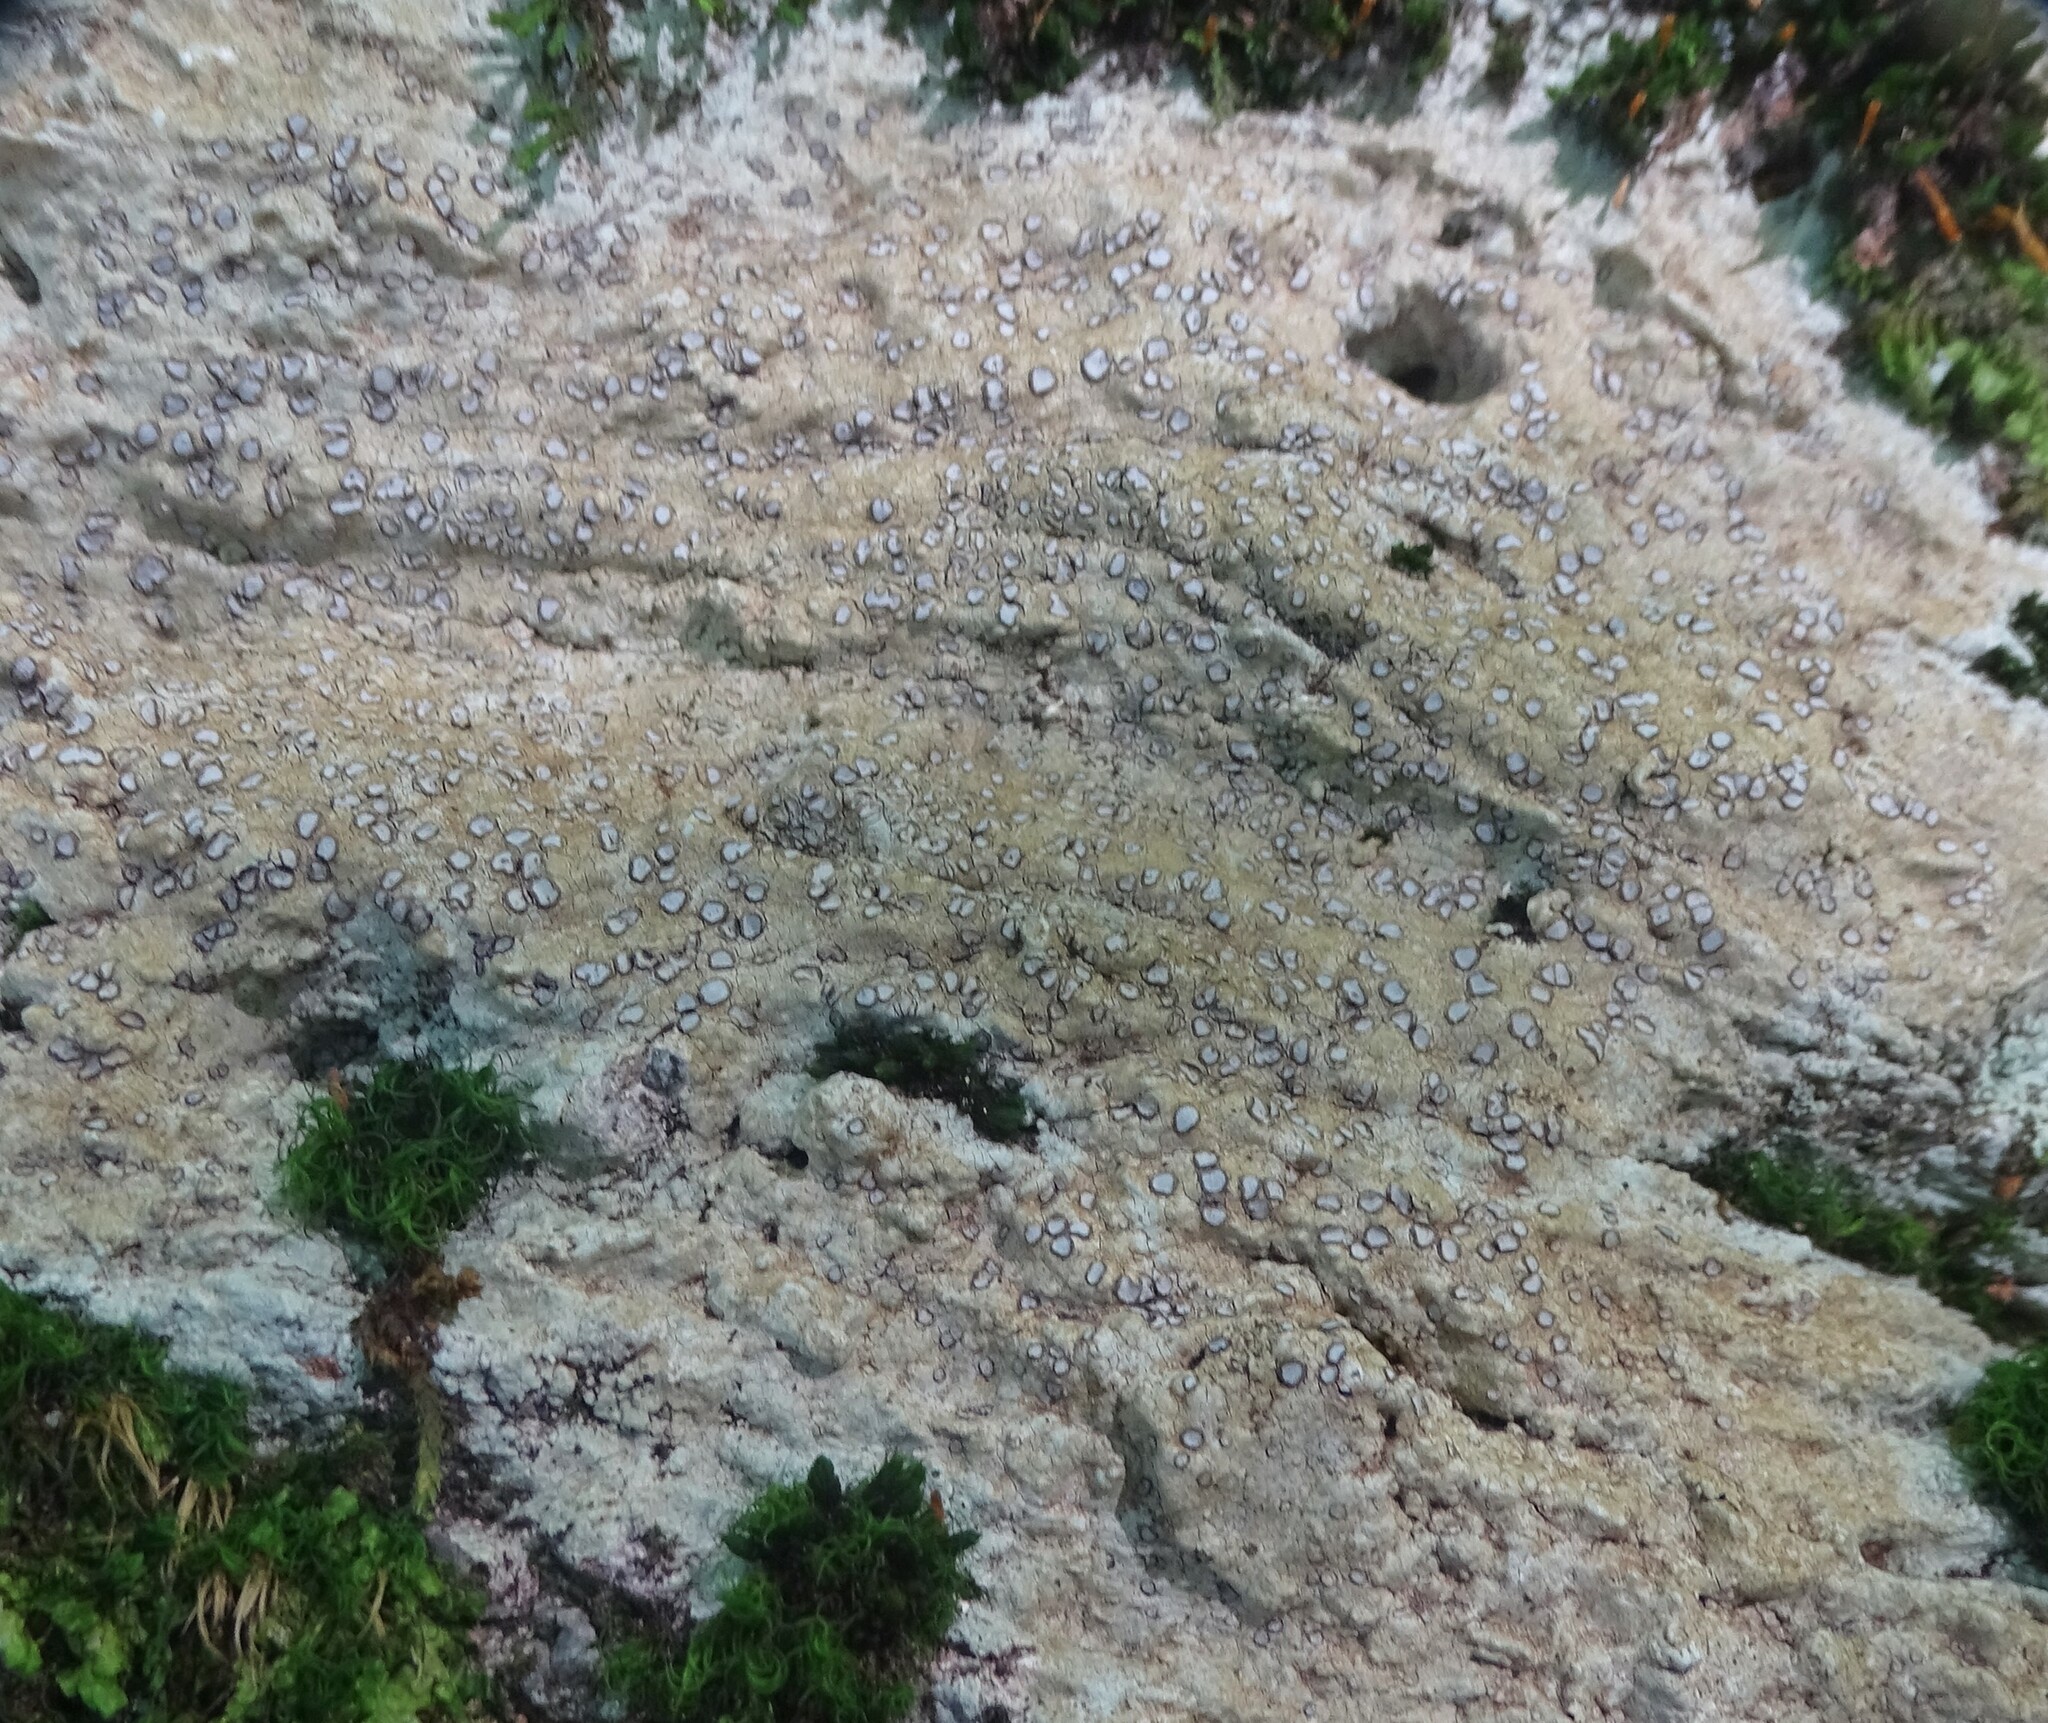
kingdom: Fungi
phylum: Ascomycota
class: Lecanoromycetes
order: Lecideales
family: Lecideaceae
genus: Porpidia
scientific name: Porpidia albocaerulescens
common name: Smokey-eyed boulder lichen
